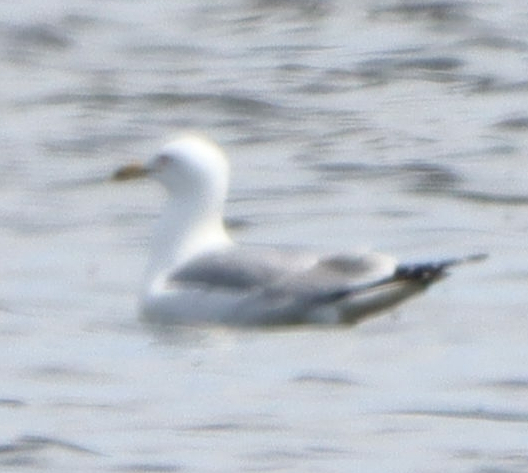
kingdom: Animalia
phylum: Chordata
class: Aves
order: Charadriiformes
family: Laridae
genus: Larus
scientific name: Larus delawarensis
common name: Ring-billed gull
